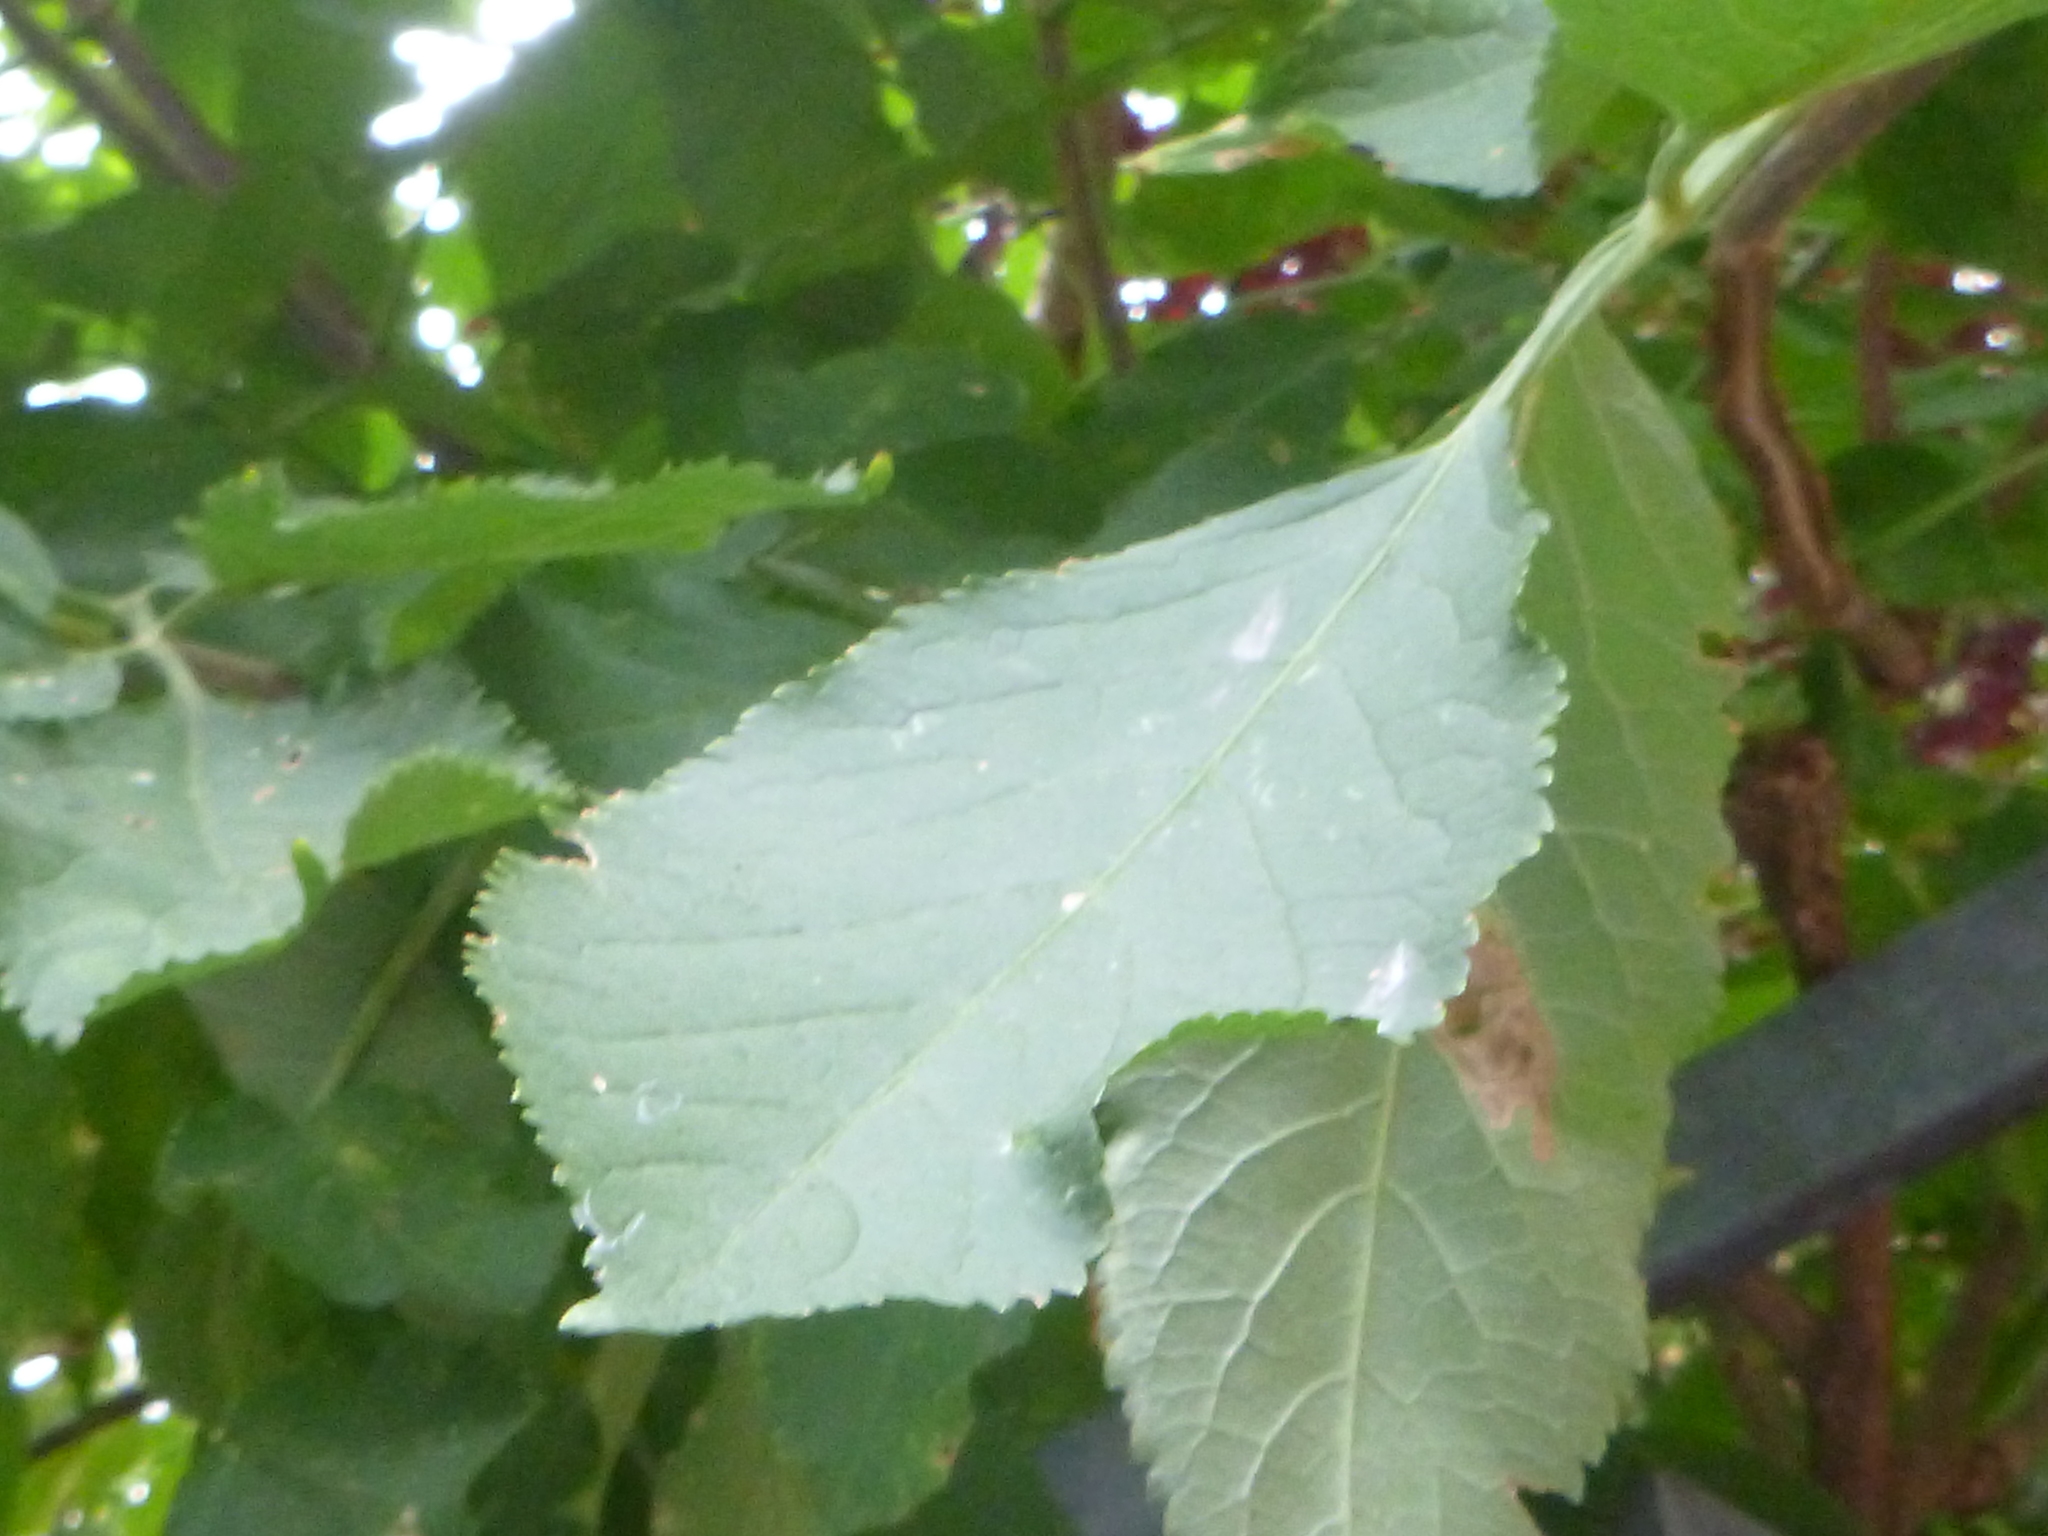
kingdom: Plantae
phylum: Tracheophyta
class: Magnoliopsida
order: Dipsacales
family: Viburnaceae
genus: Sambucus
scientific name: Sambucus nigra
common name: Elder
